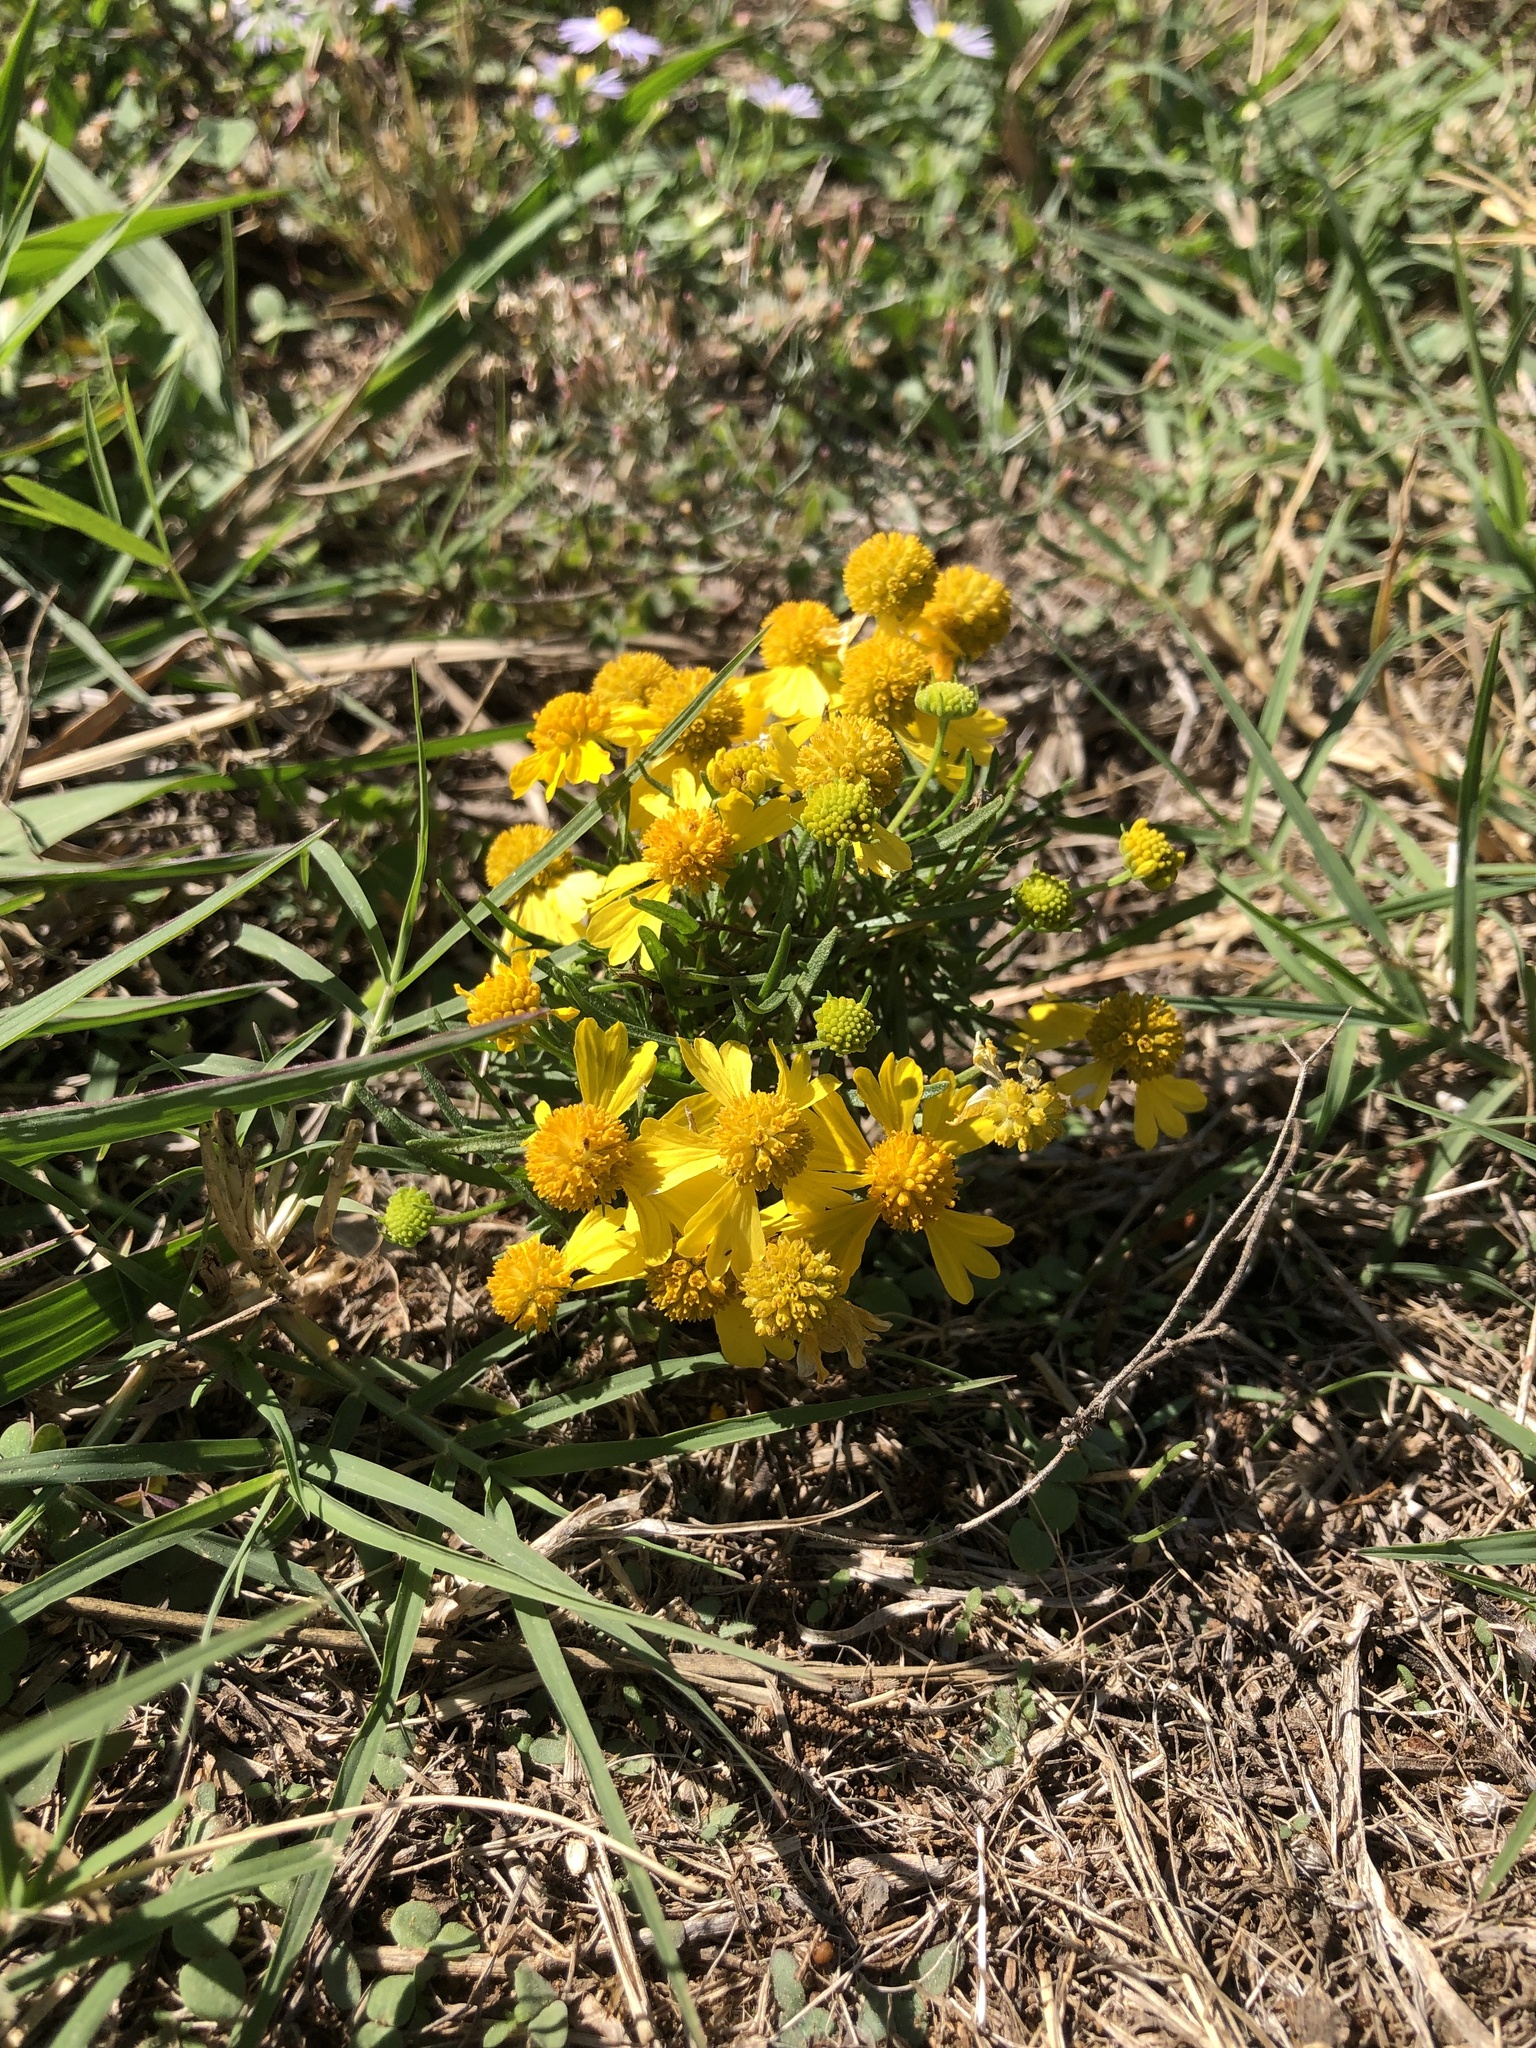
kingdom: Plantae
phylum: Tracheophyta
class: Magnoliopsida
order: Asterales
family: Asteraceae
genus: Helenium
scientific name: Helenium amarum
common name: Bitter sneezeweed
